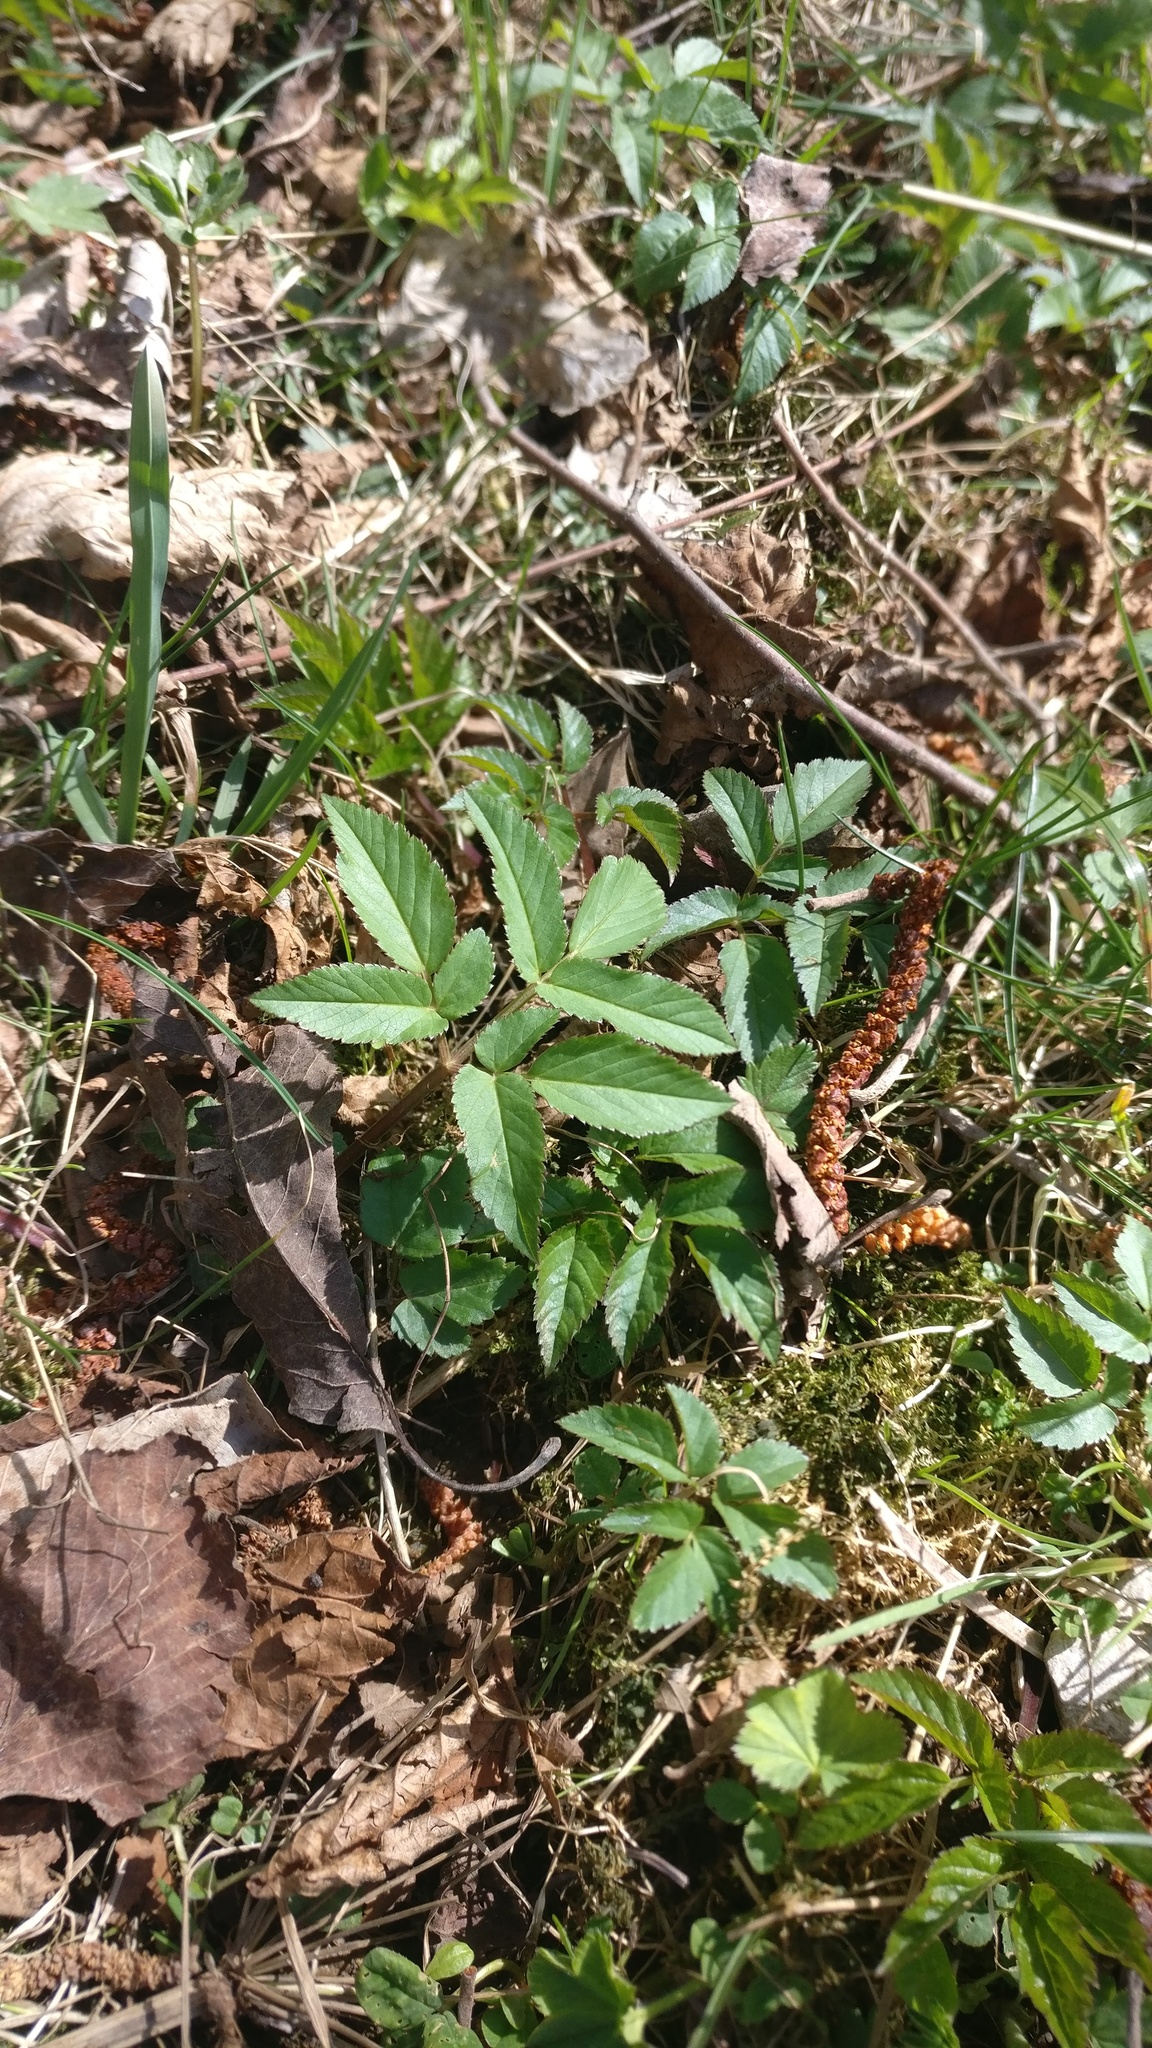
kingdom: Plantae
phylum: Tracheophyta
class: Magnoliopsida
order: Apiales
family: Apiaceae
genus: Aegopodium
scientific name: Aegopodium podagraria
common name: Ground-elder
